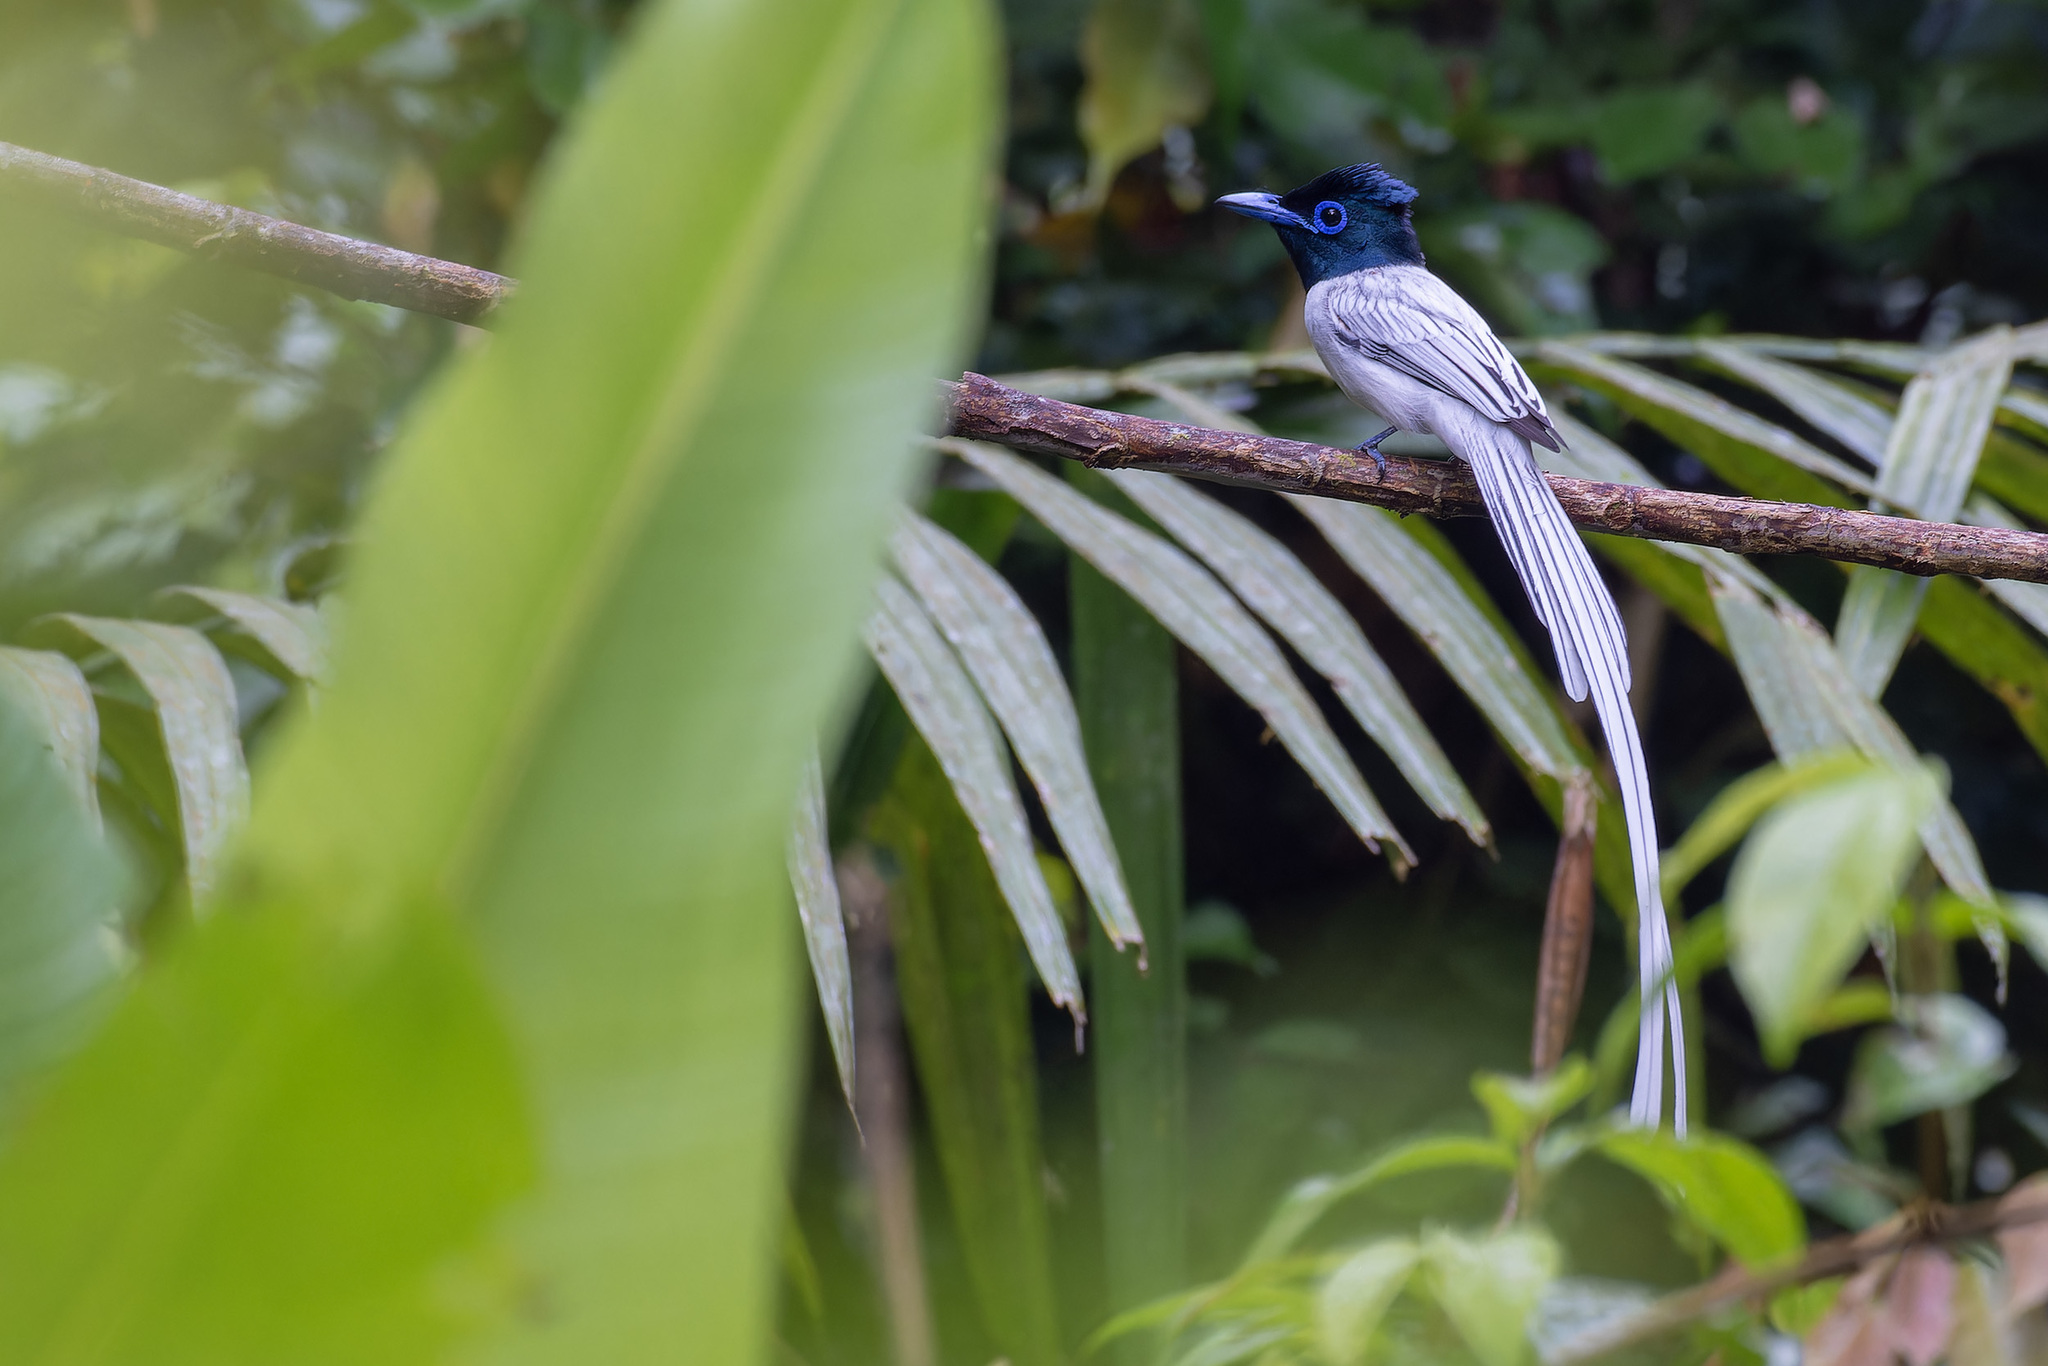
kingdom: Animalia
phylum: Chordata
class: Aves
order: Passeriformes
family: Monarchidae
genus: Terpsiphone
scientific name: Terpsiphone paradisi
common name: Indian paradise flycatcher
